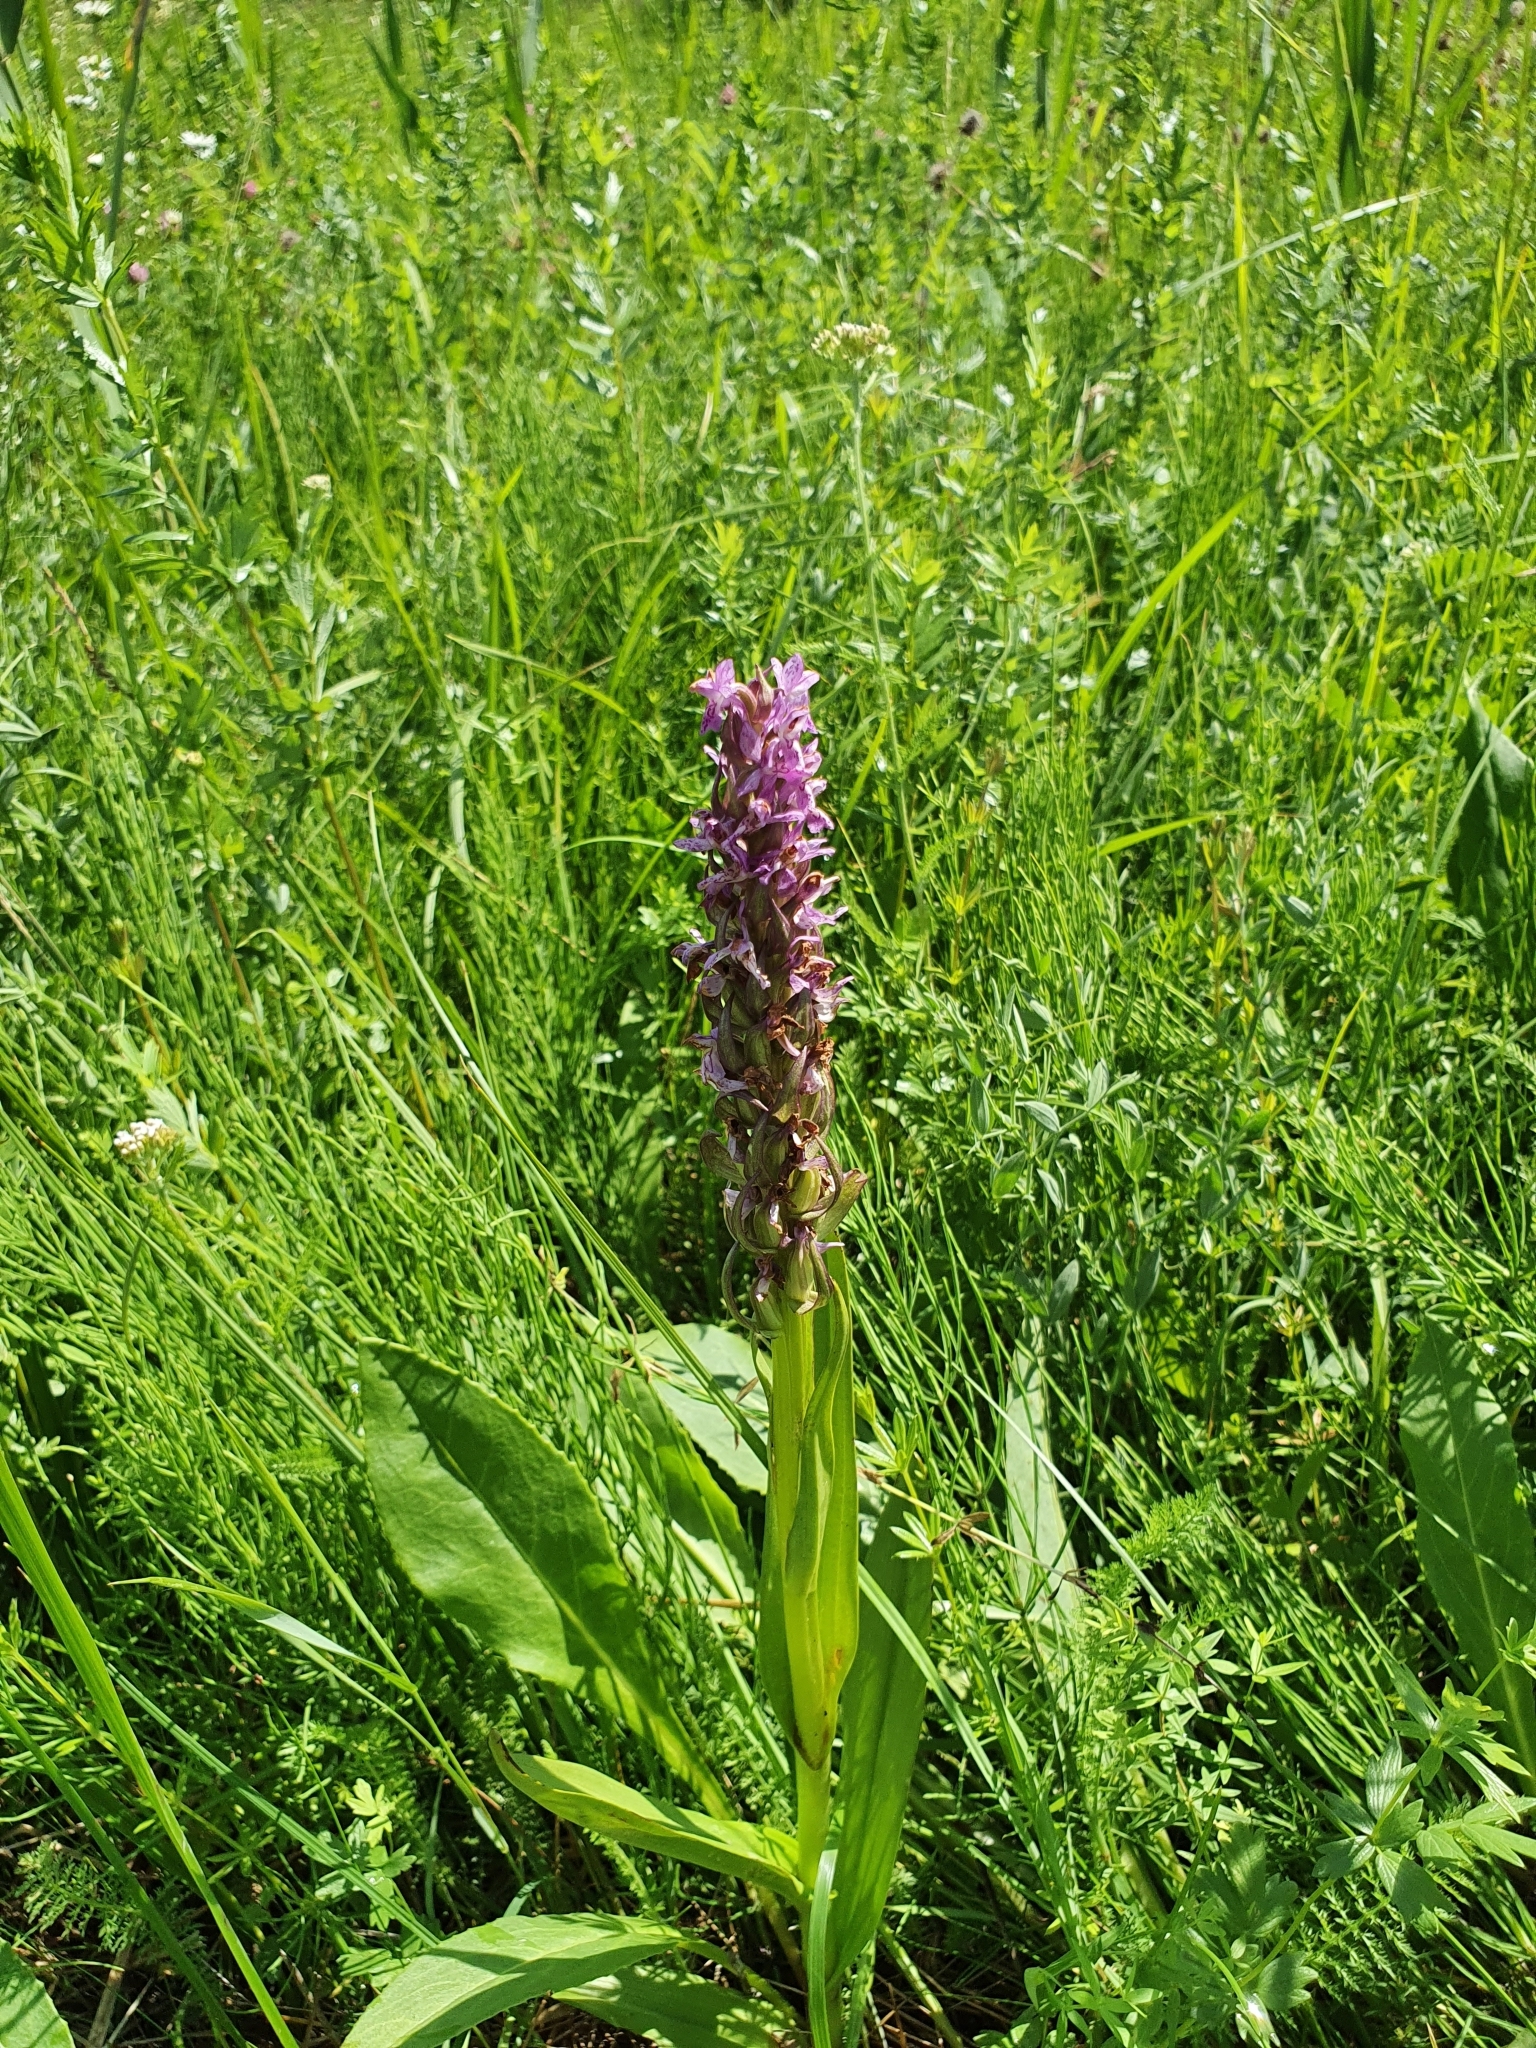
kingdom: Plantae
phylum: Tracheophyta
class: Liliopsida
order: Asparagales
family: Orchidaceae
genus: Dactylorhiza
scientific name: Dactylorhiza incarnata
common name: Early marsh-orchid
